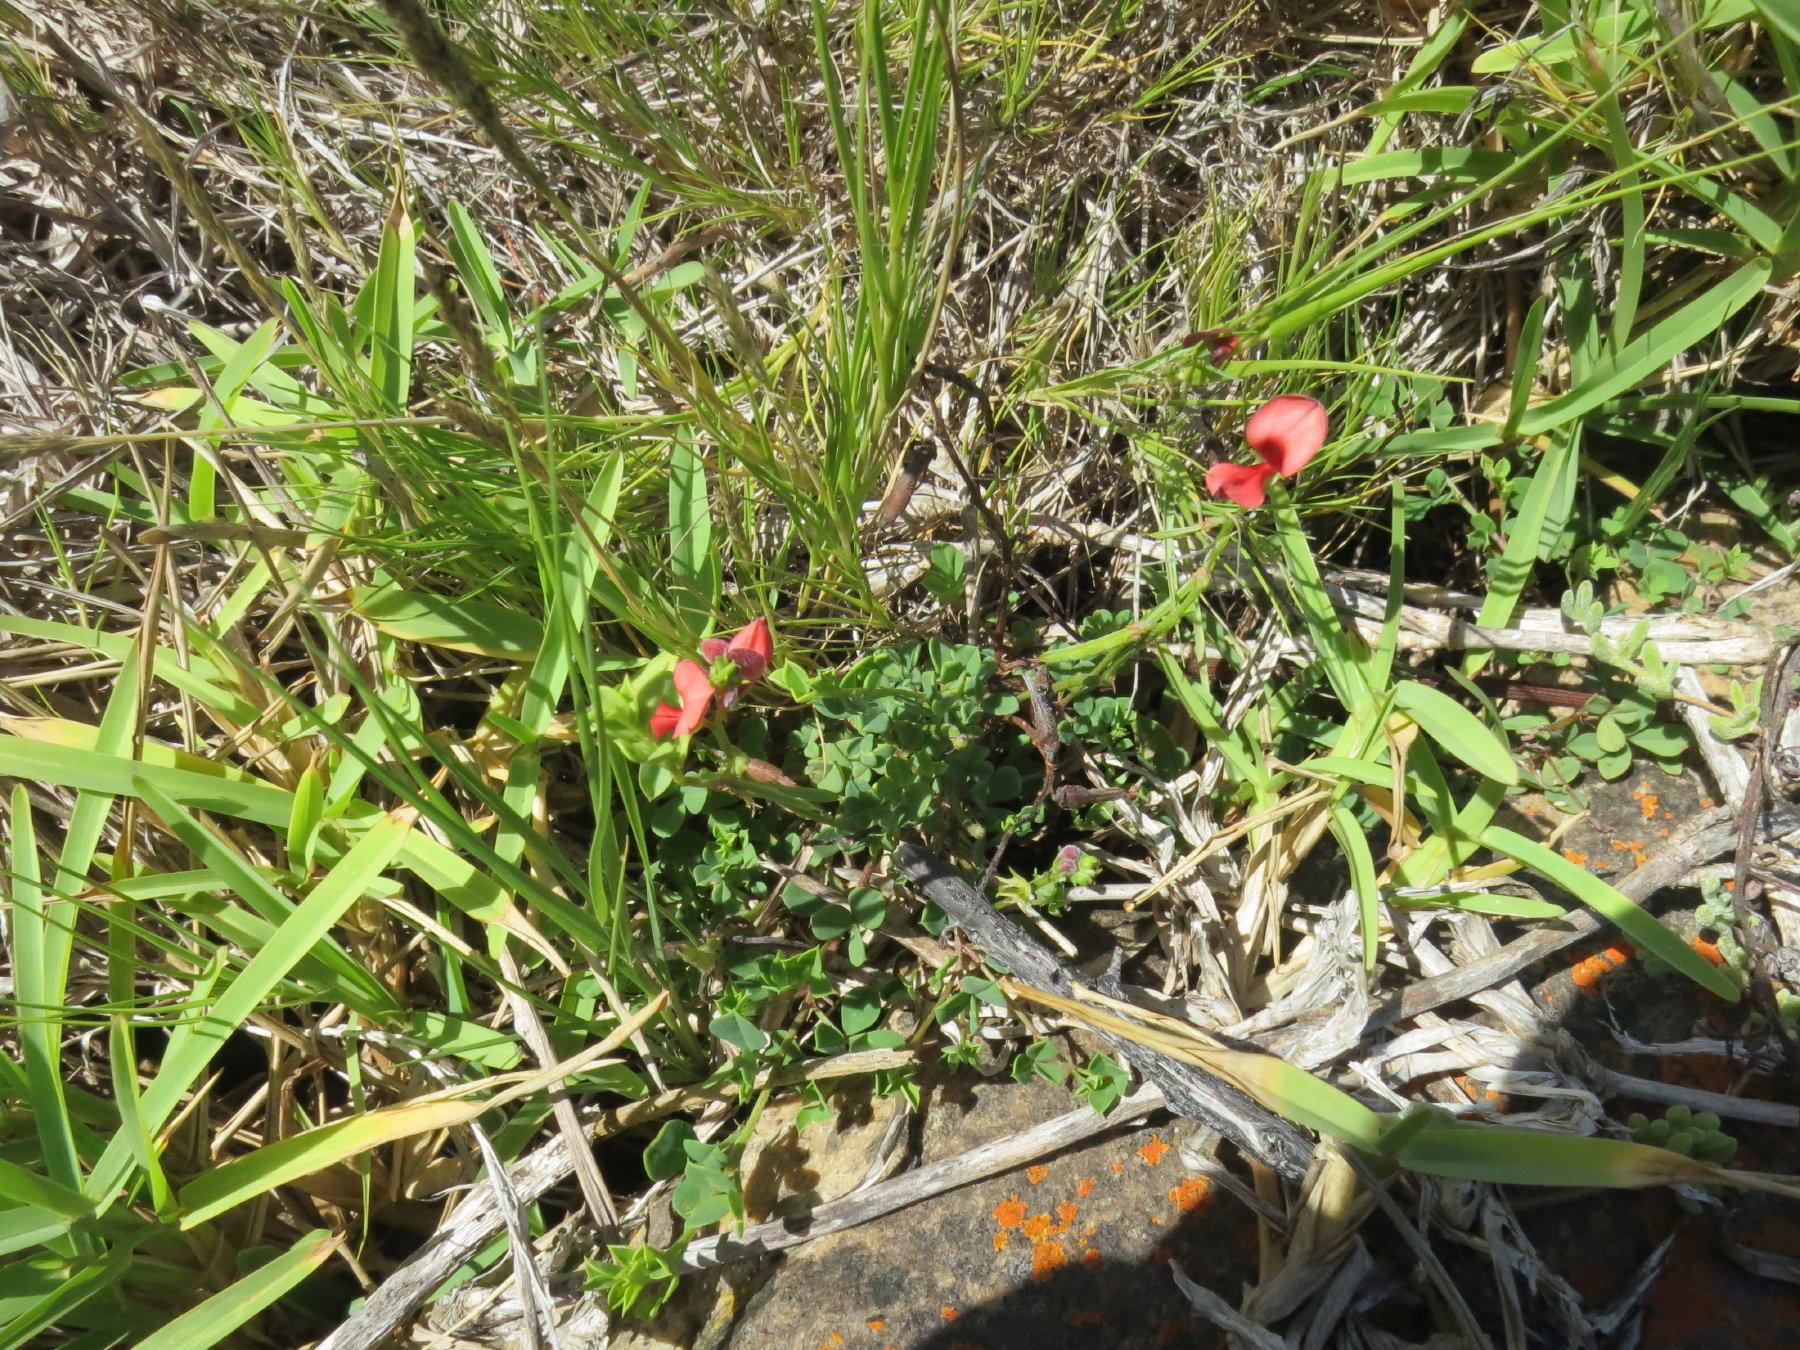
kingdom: Plantae
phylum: Tracheophyta
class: Magnoliopsida
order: Fabales
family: Fabaceae
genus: Indigofera
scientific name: Indigofera erecta
